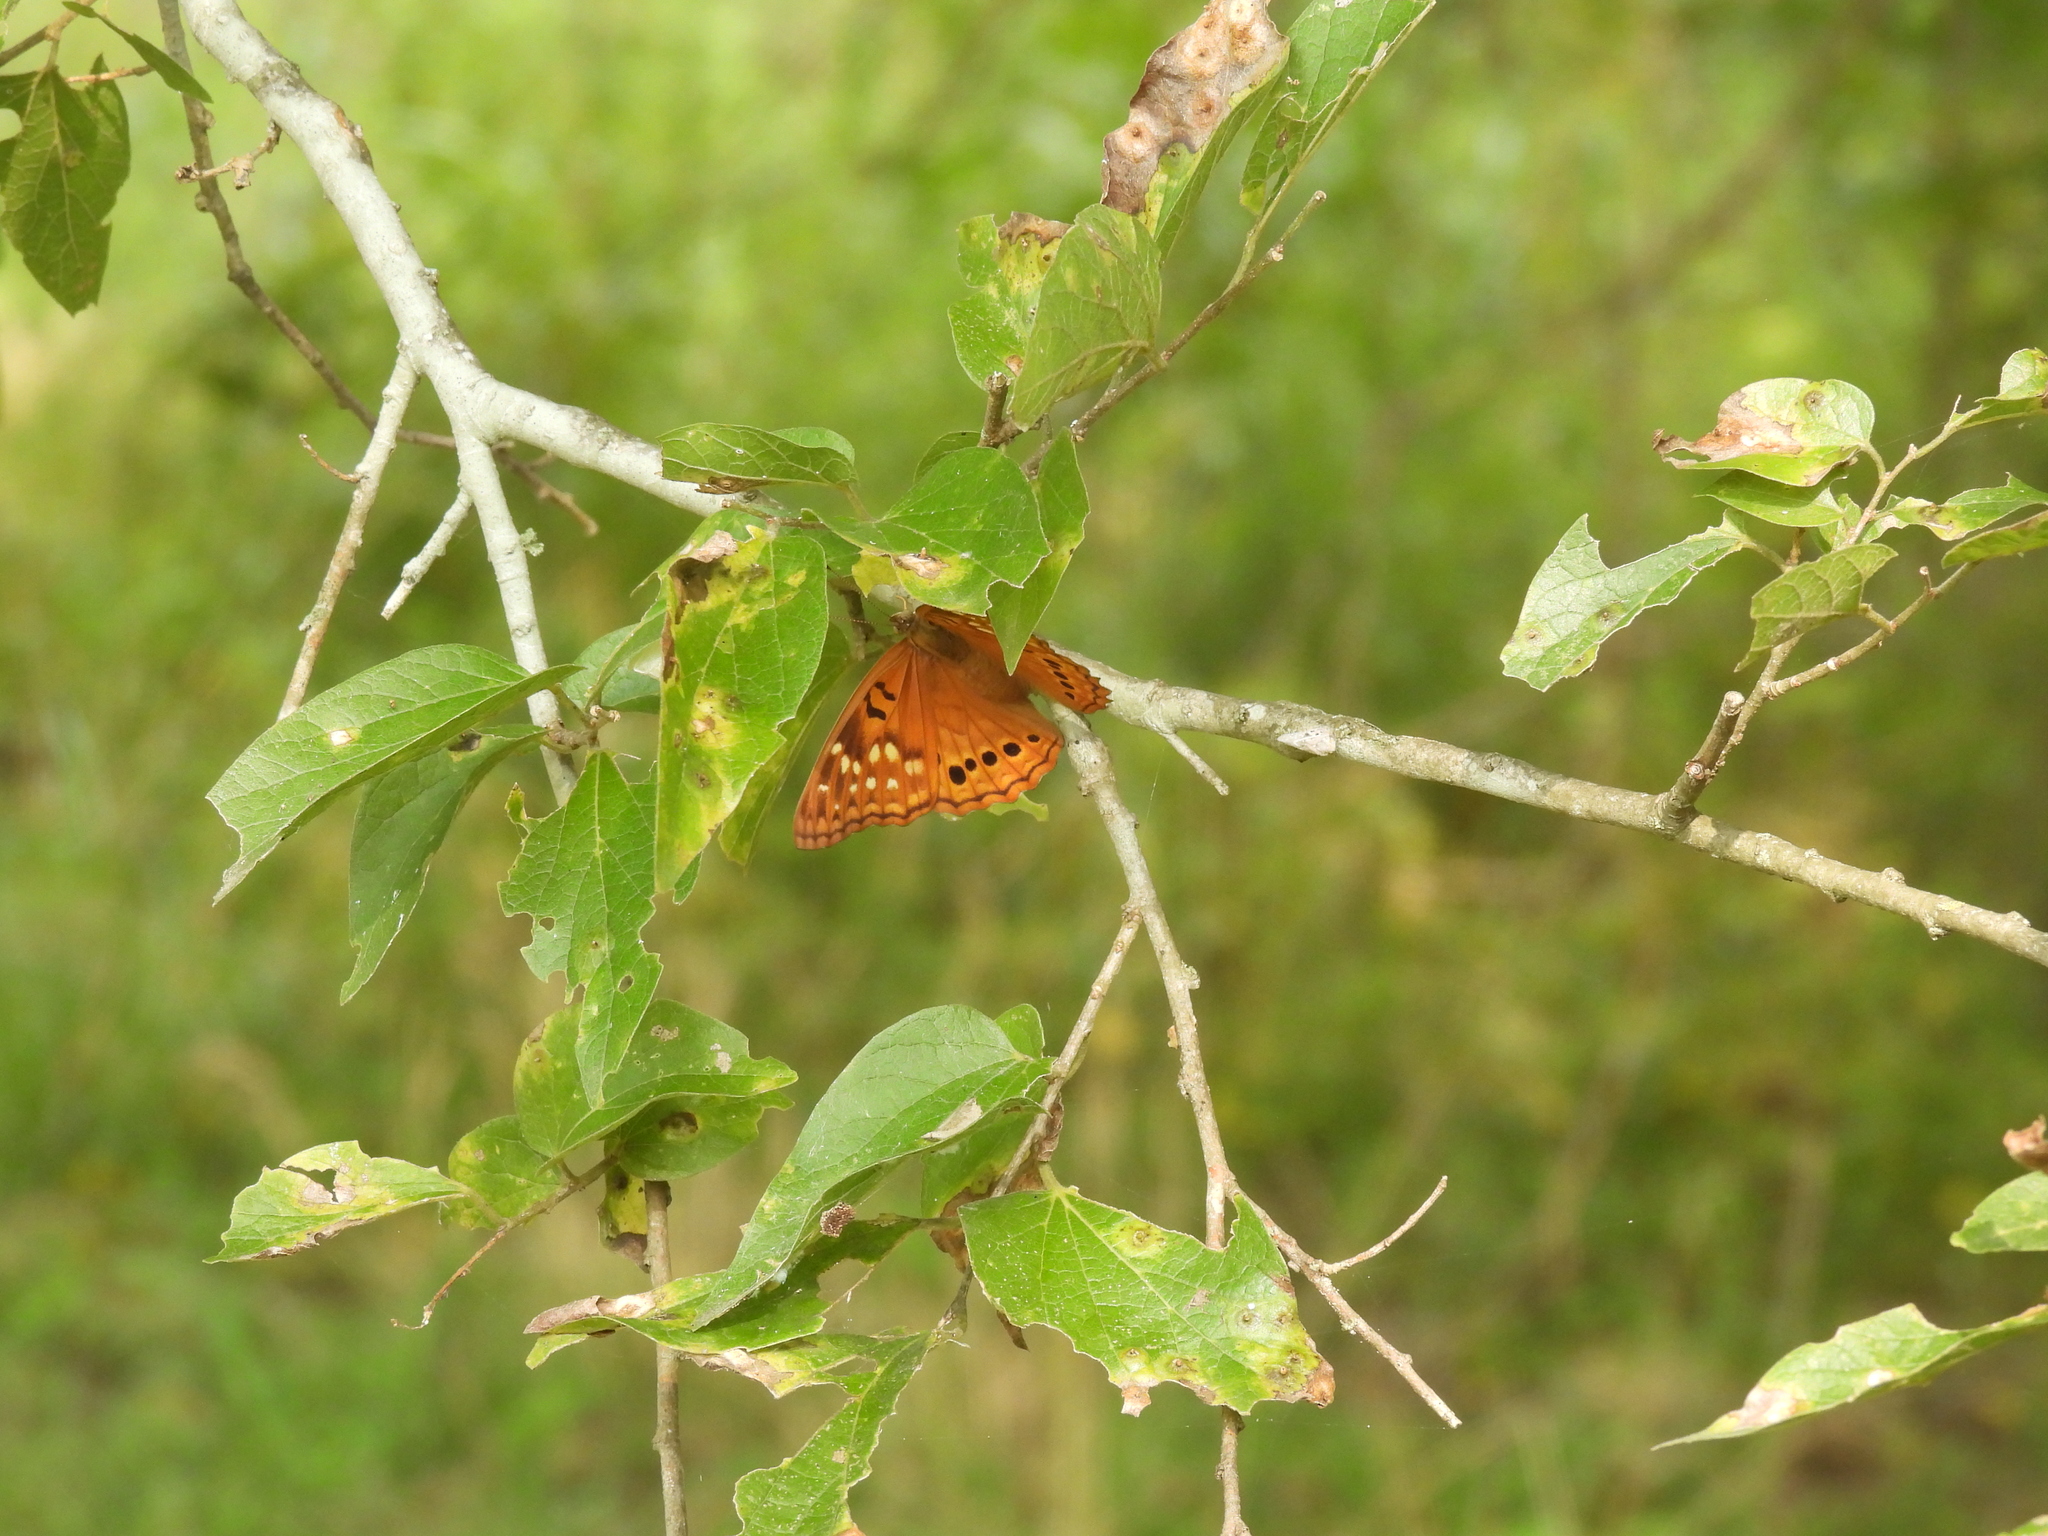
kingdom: Animalia
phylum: Arthropoda
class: Insecta
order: Lepidoptera
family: Nymphalidae
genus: Asterocampa
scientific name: Asterocampa clyton
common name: Tawny emperor
